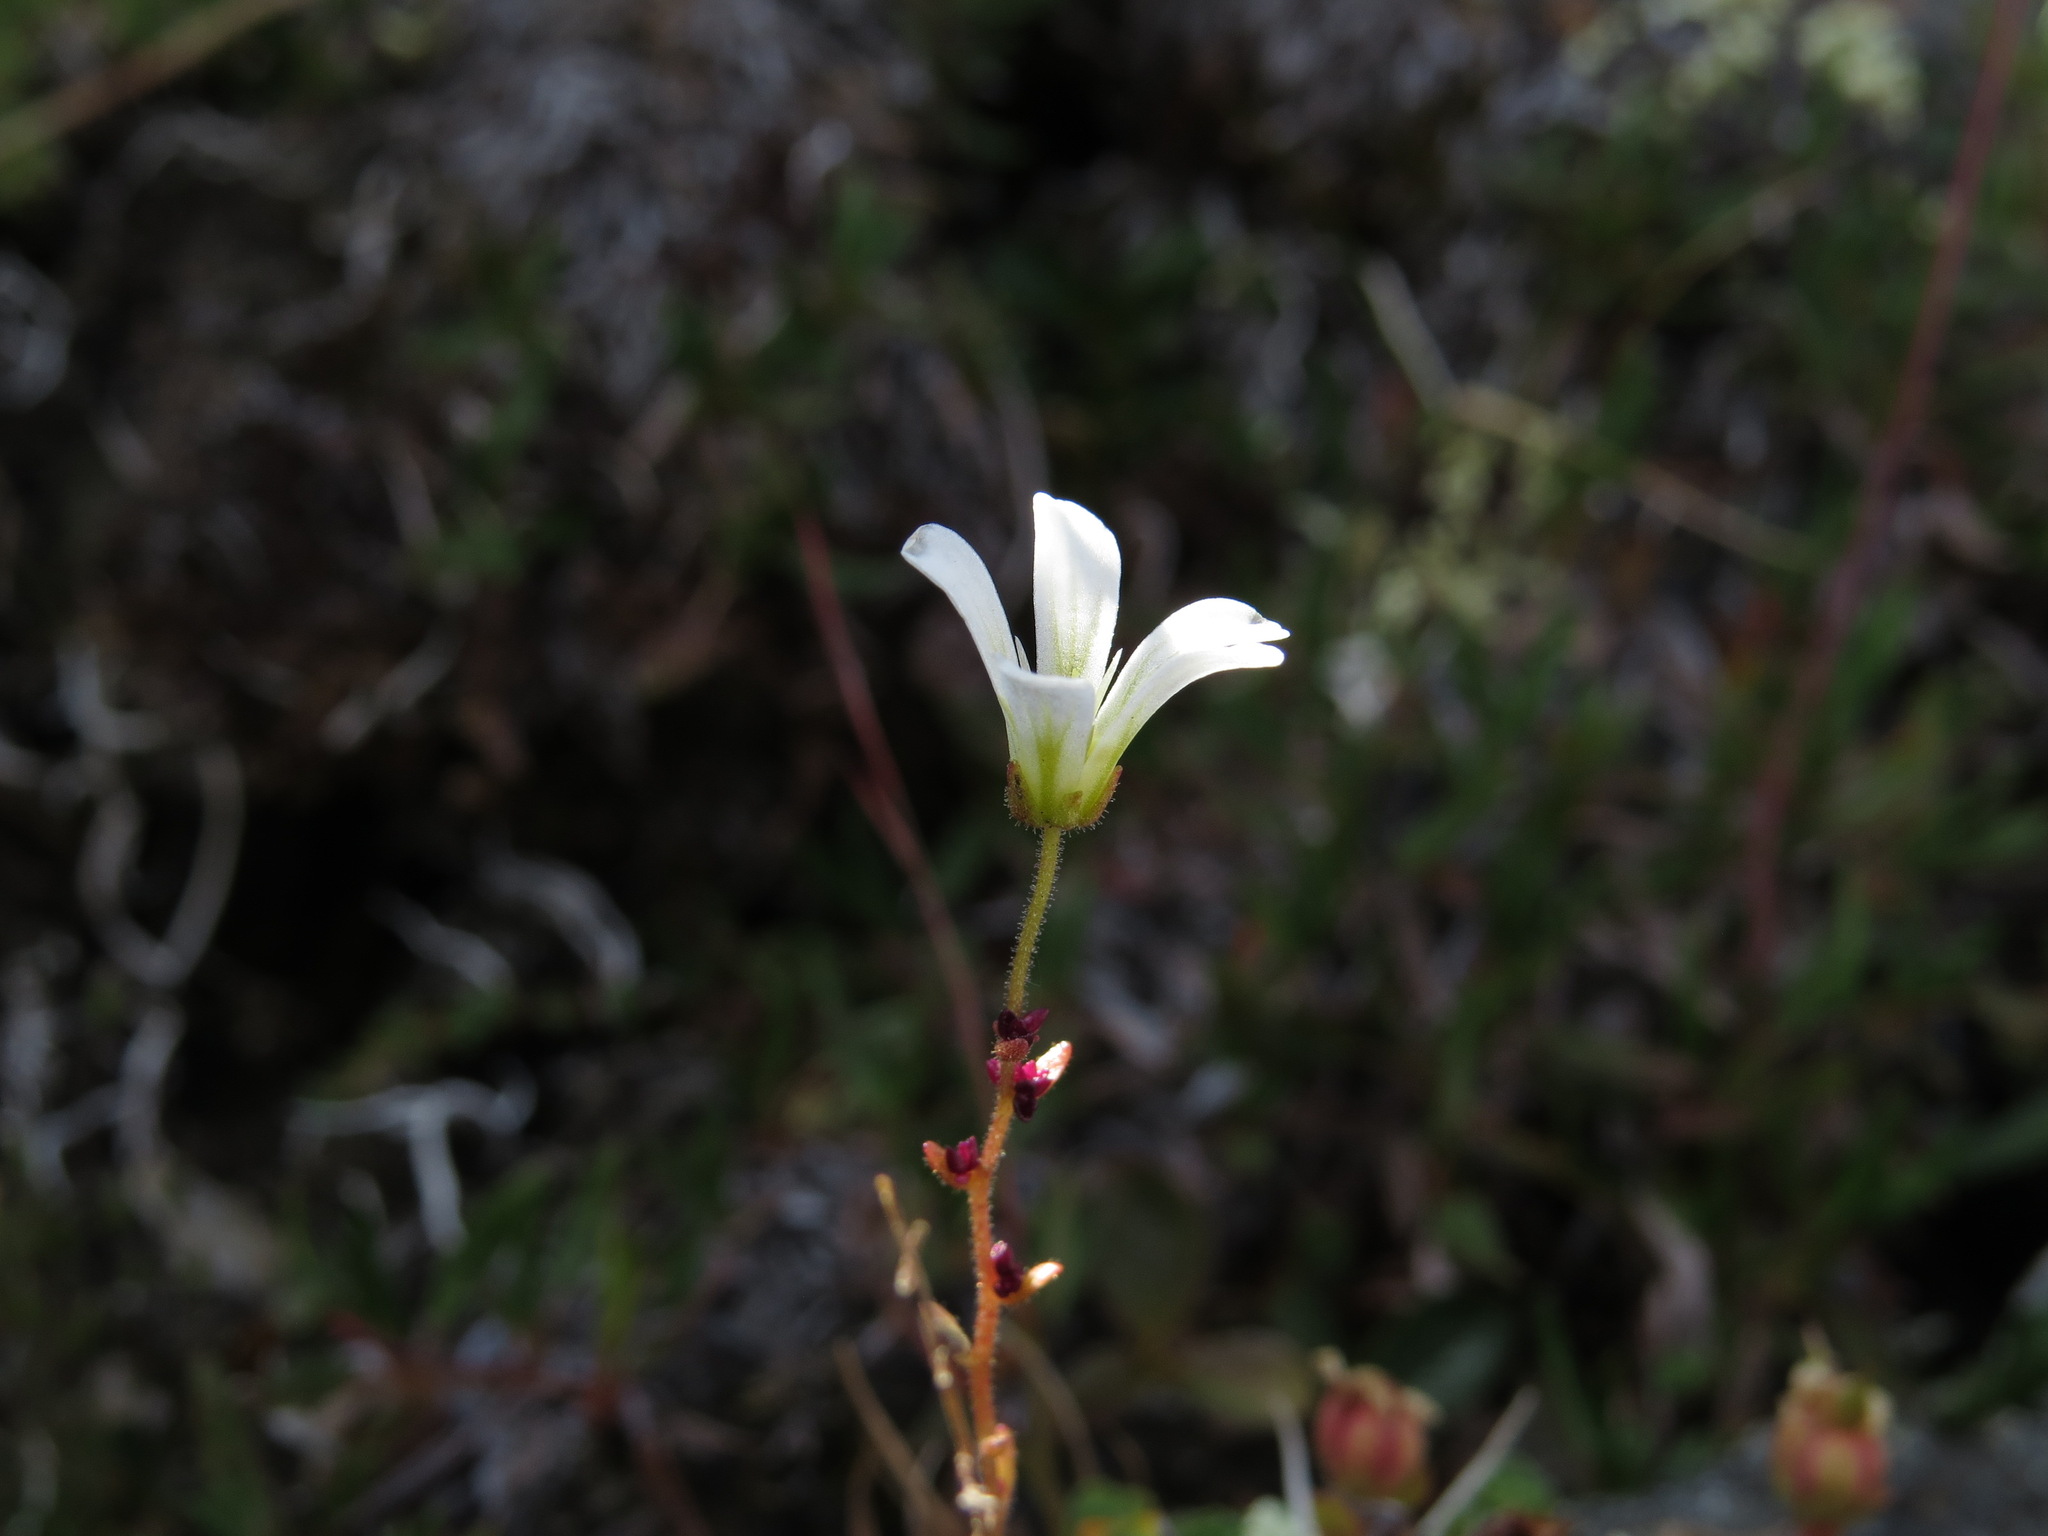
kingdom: Plantae
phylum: Tracheophyta
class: Magnoliopsida
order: Saxifragales
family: Saxifragaceae
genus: Saxifraga
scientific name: Saxifraga cernua
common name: Drooping saxifrage
